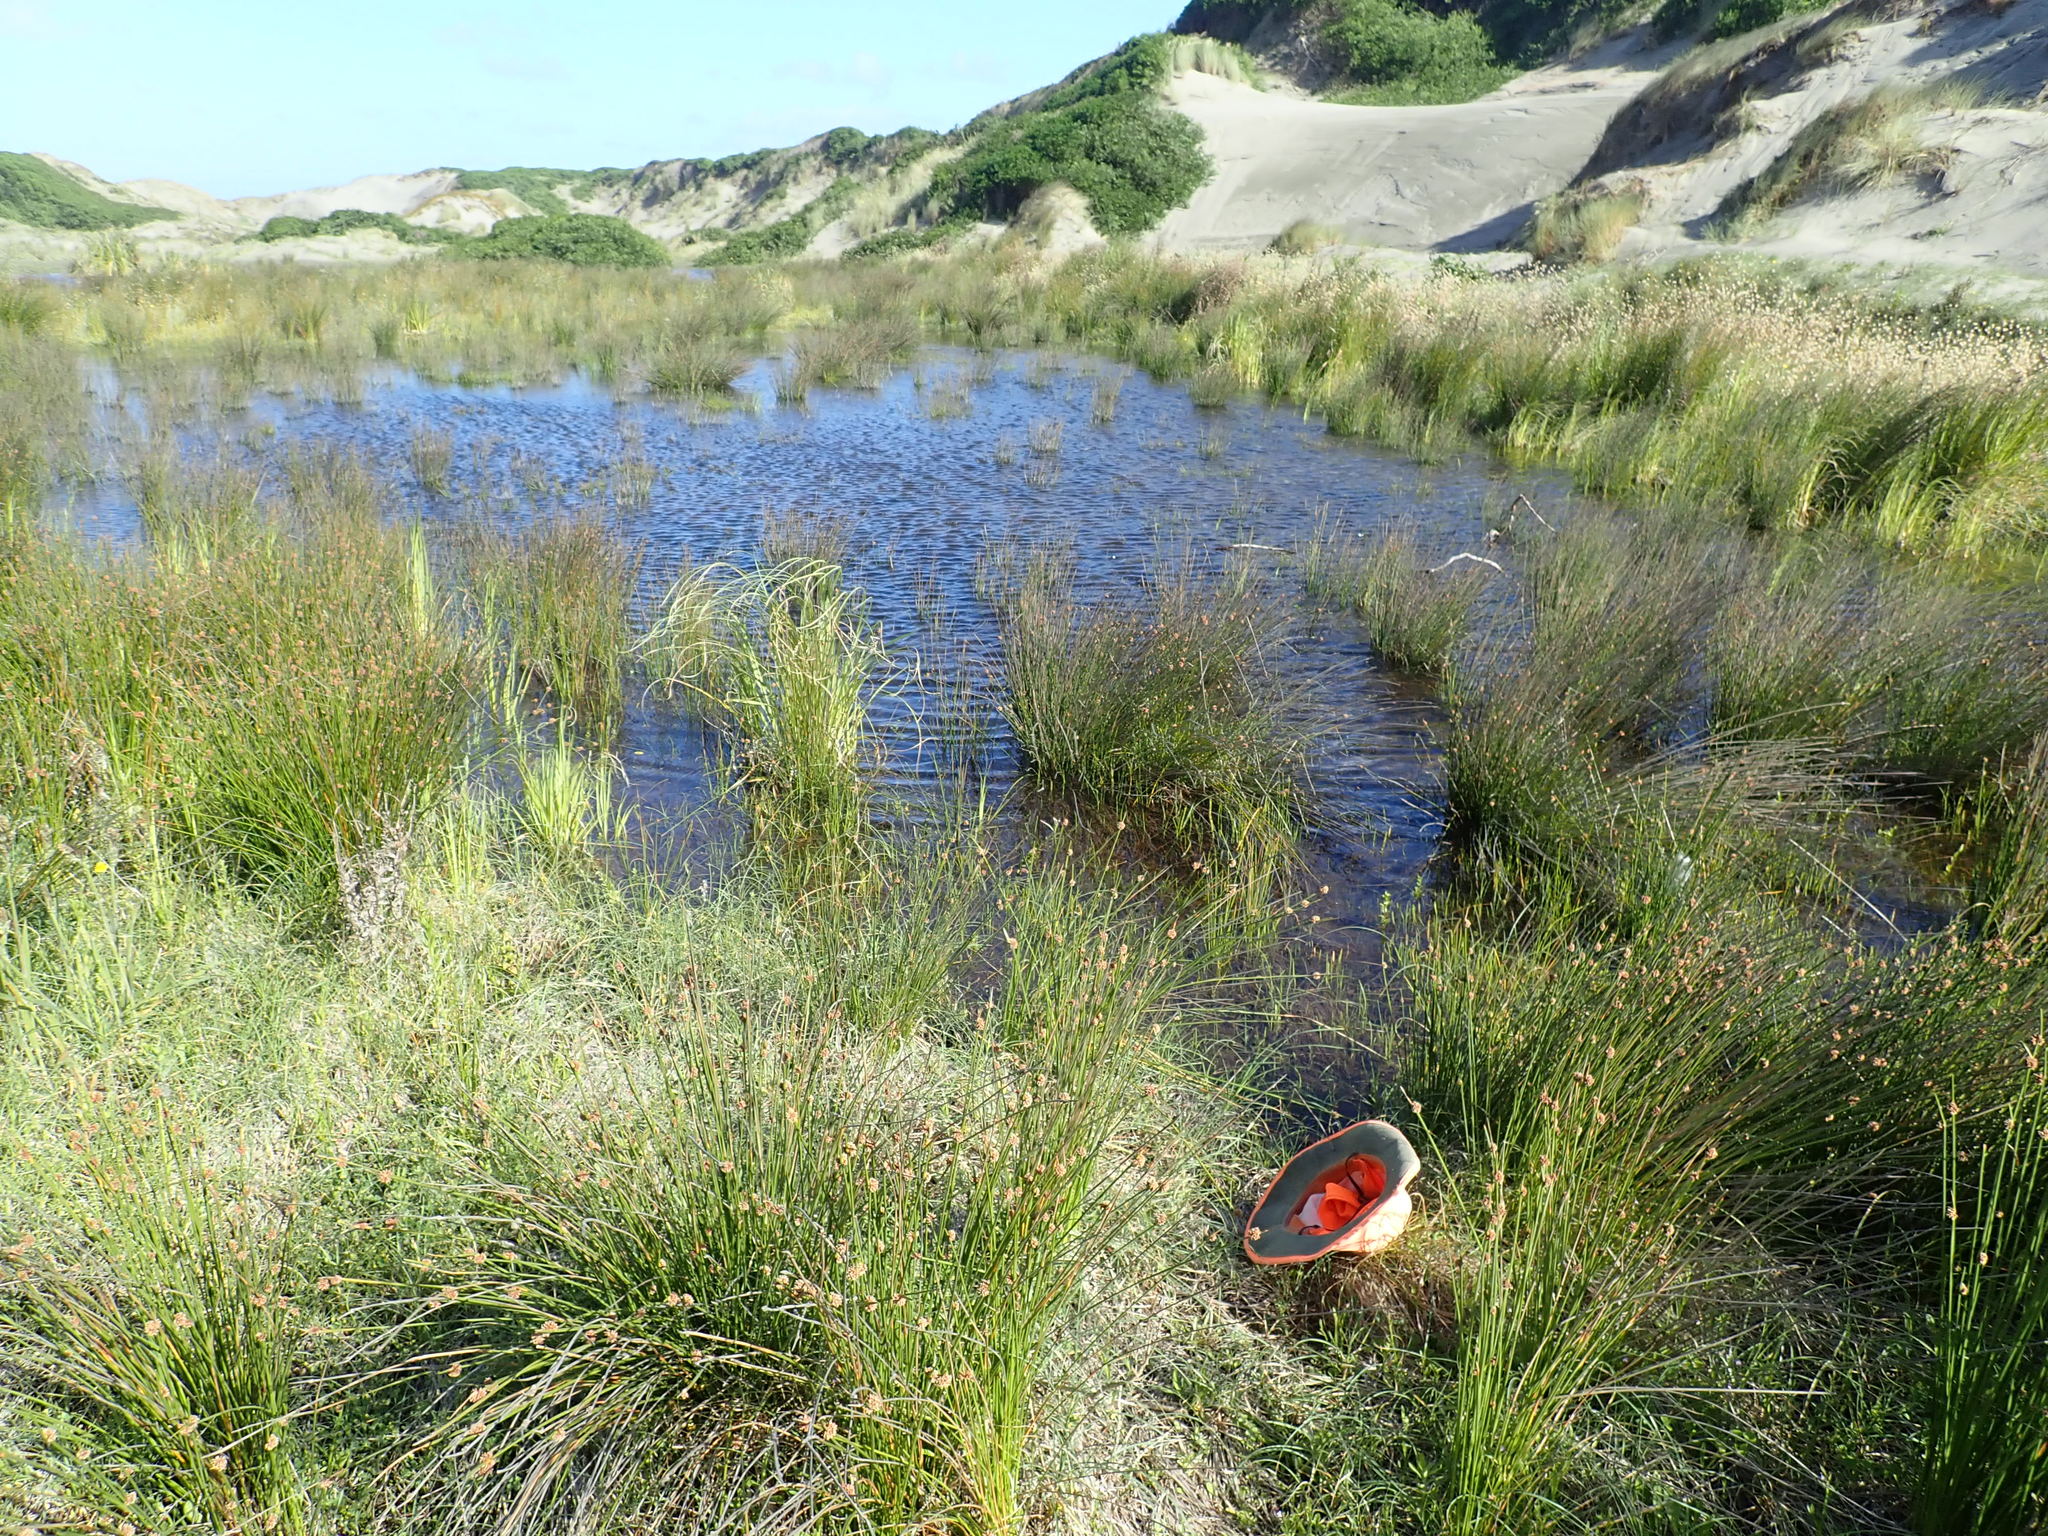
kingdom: Plantae
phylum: Tracheophyta
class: Liliopsida
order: Alismatales
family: Juncaginaceae
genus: Triglochin
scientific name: Triglochin striata
